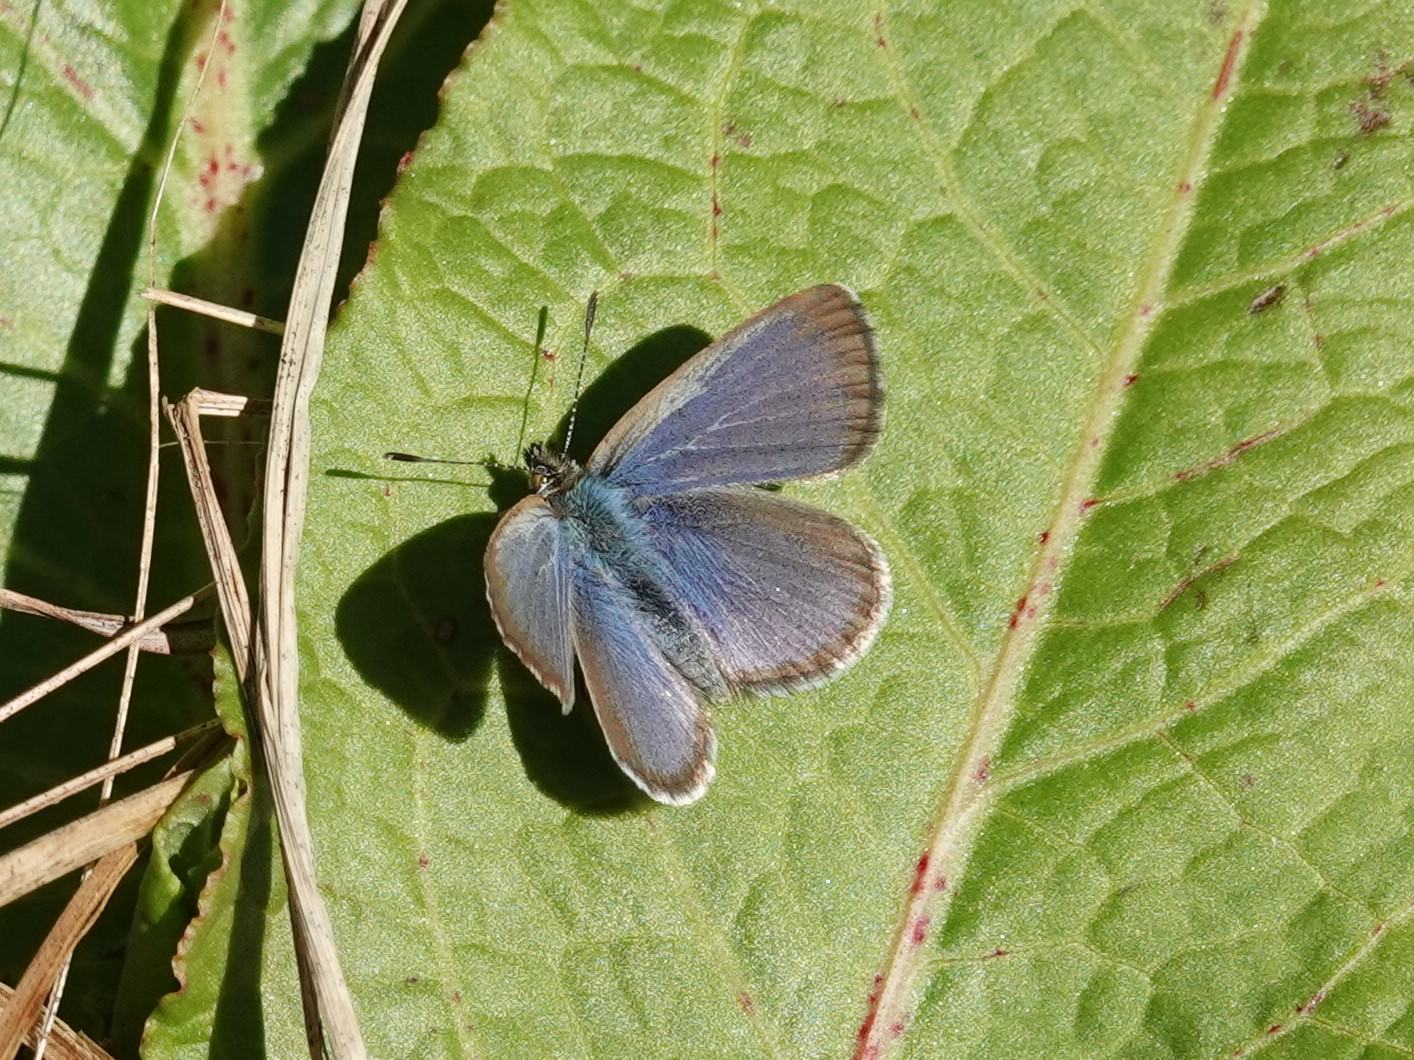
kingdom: Animalia
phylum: Arthropoda
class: Insecta
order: Lepidoptera
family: Lycaenidae
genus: Zizina
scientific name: Zizina labradus
